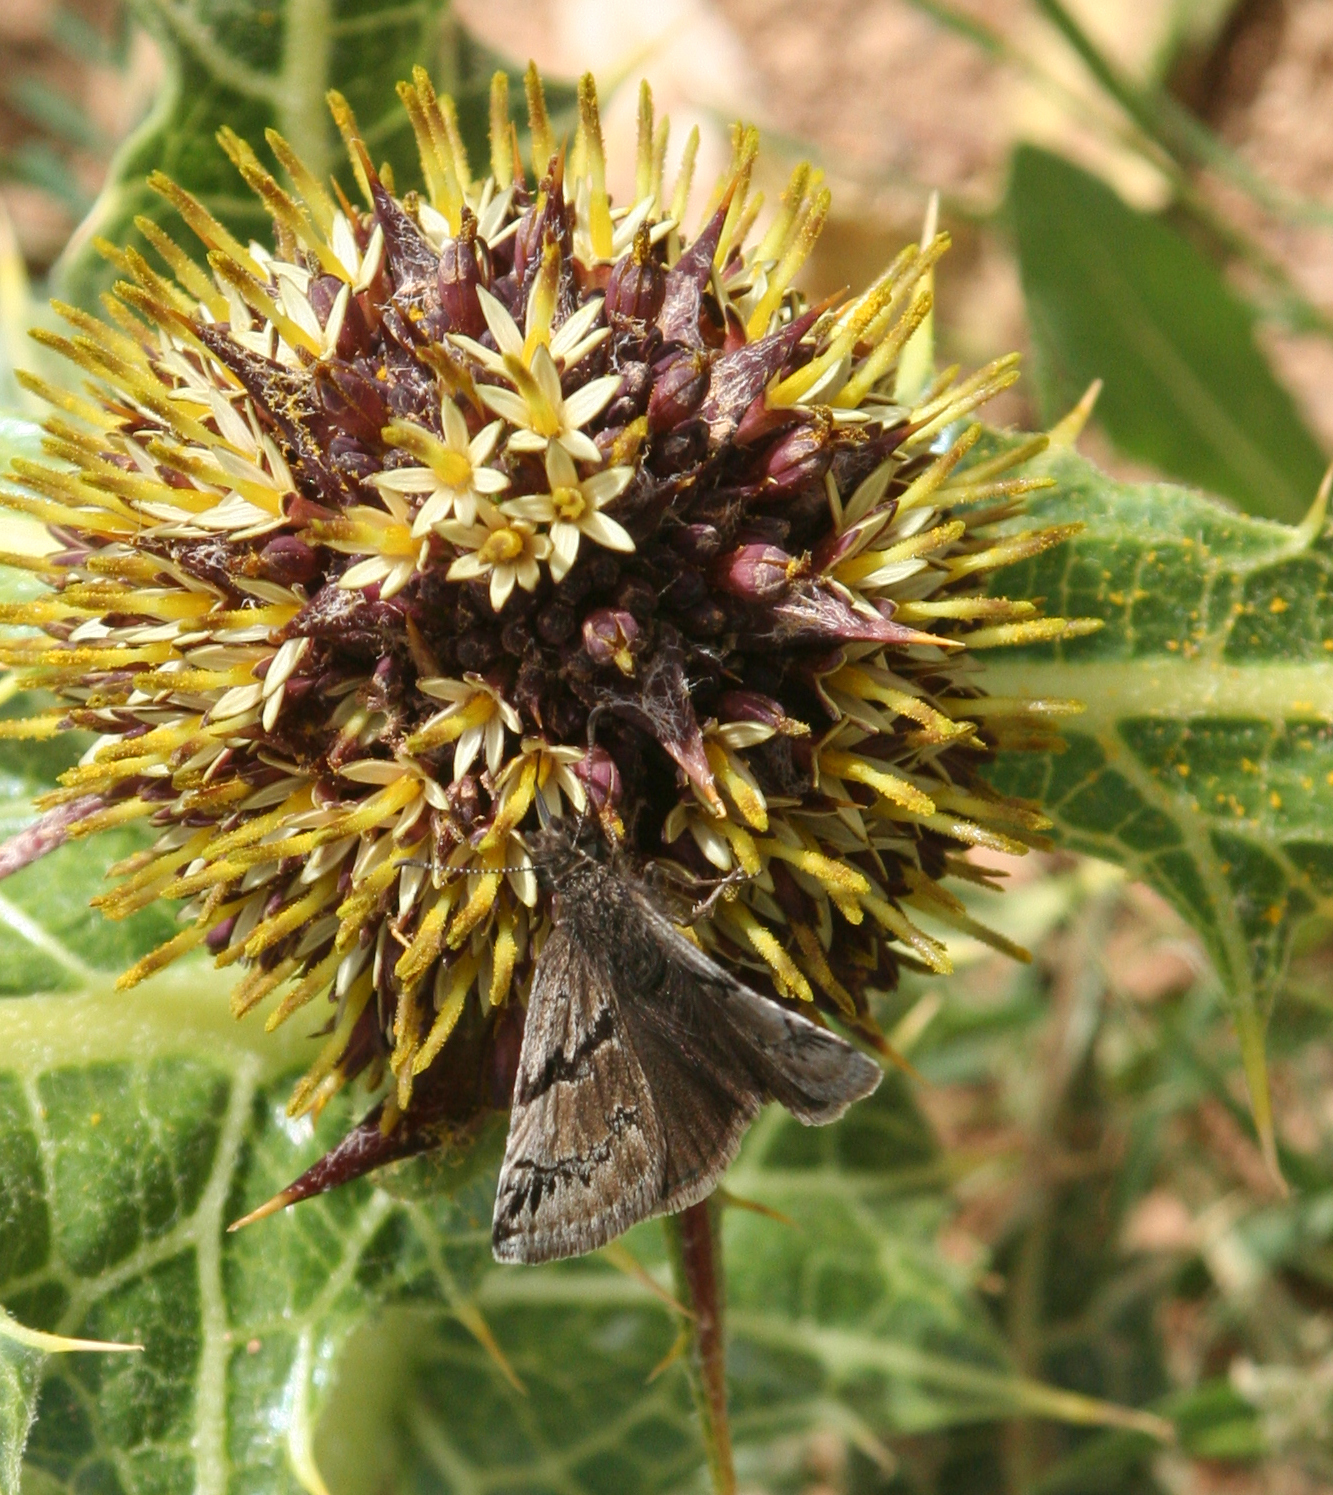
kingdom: Animalia
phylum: Arthropoda
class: Insecta
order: Lepidoptera
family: Hesperiidae
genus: Erynnis
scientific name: Erynnis marloyi
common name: Inky skipper
